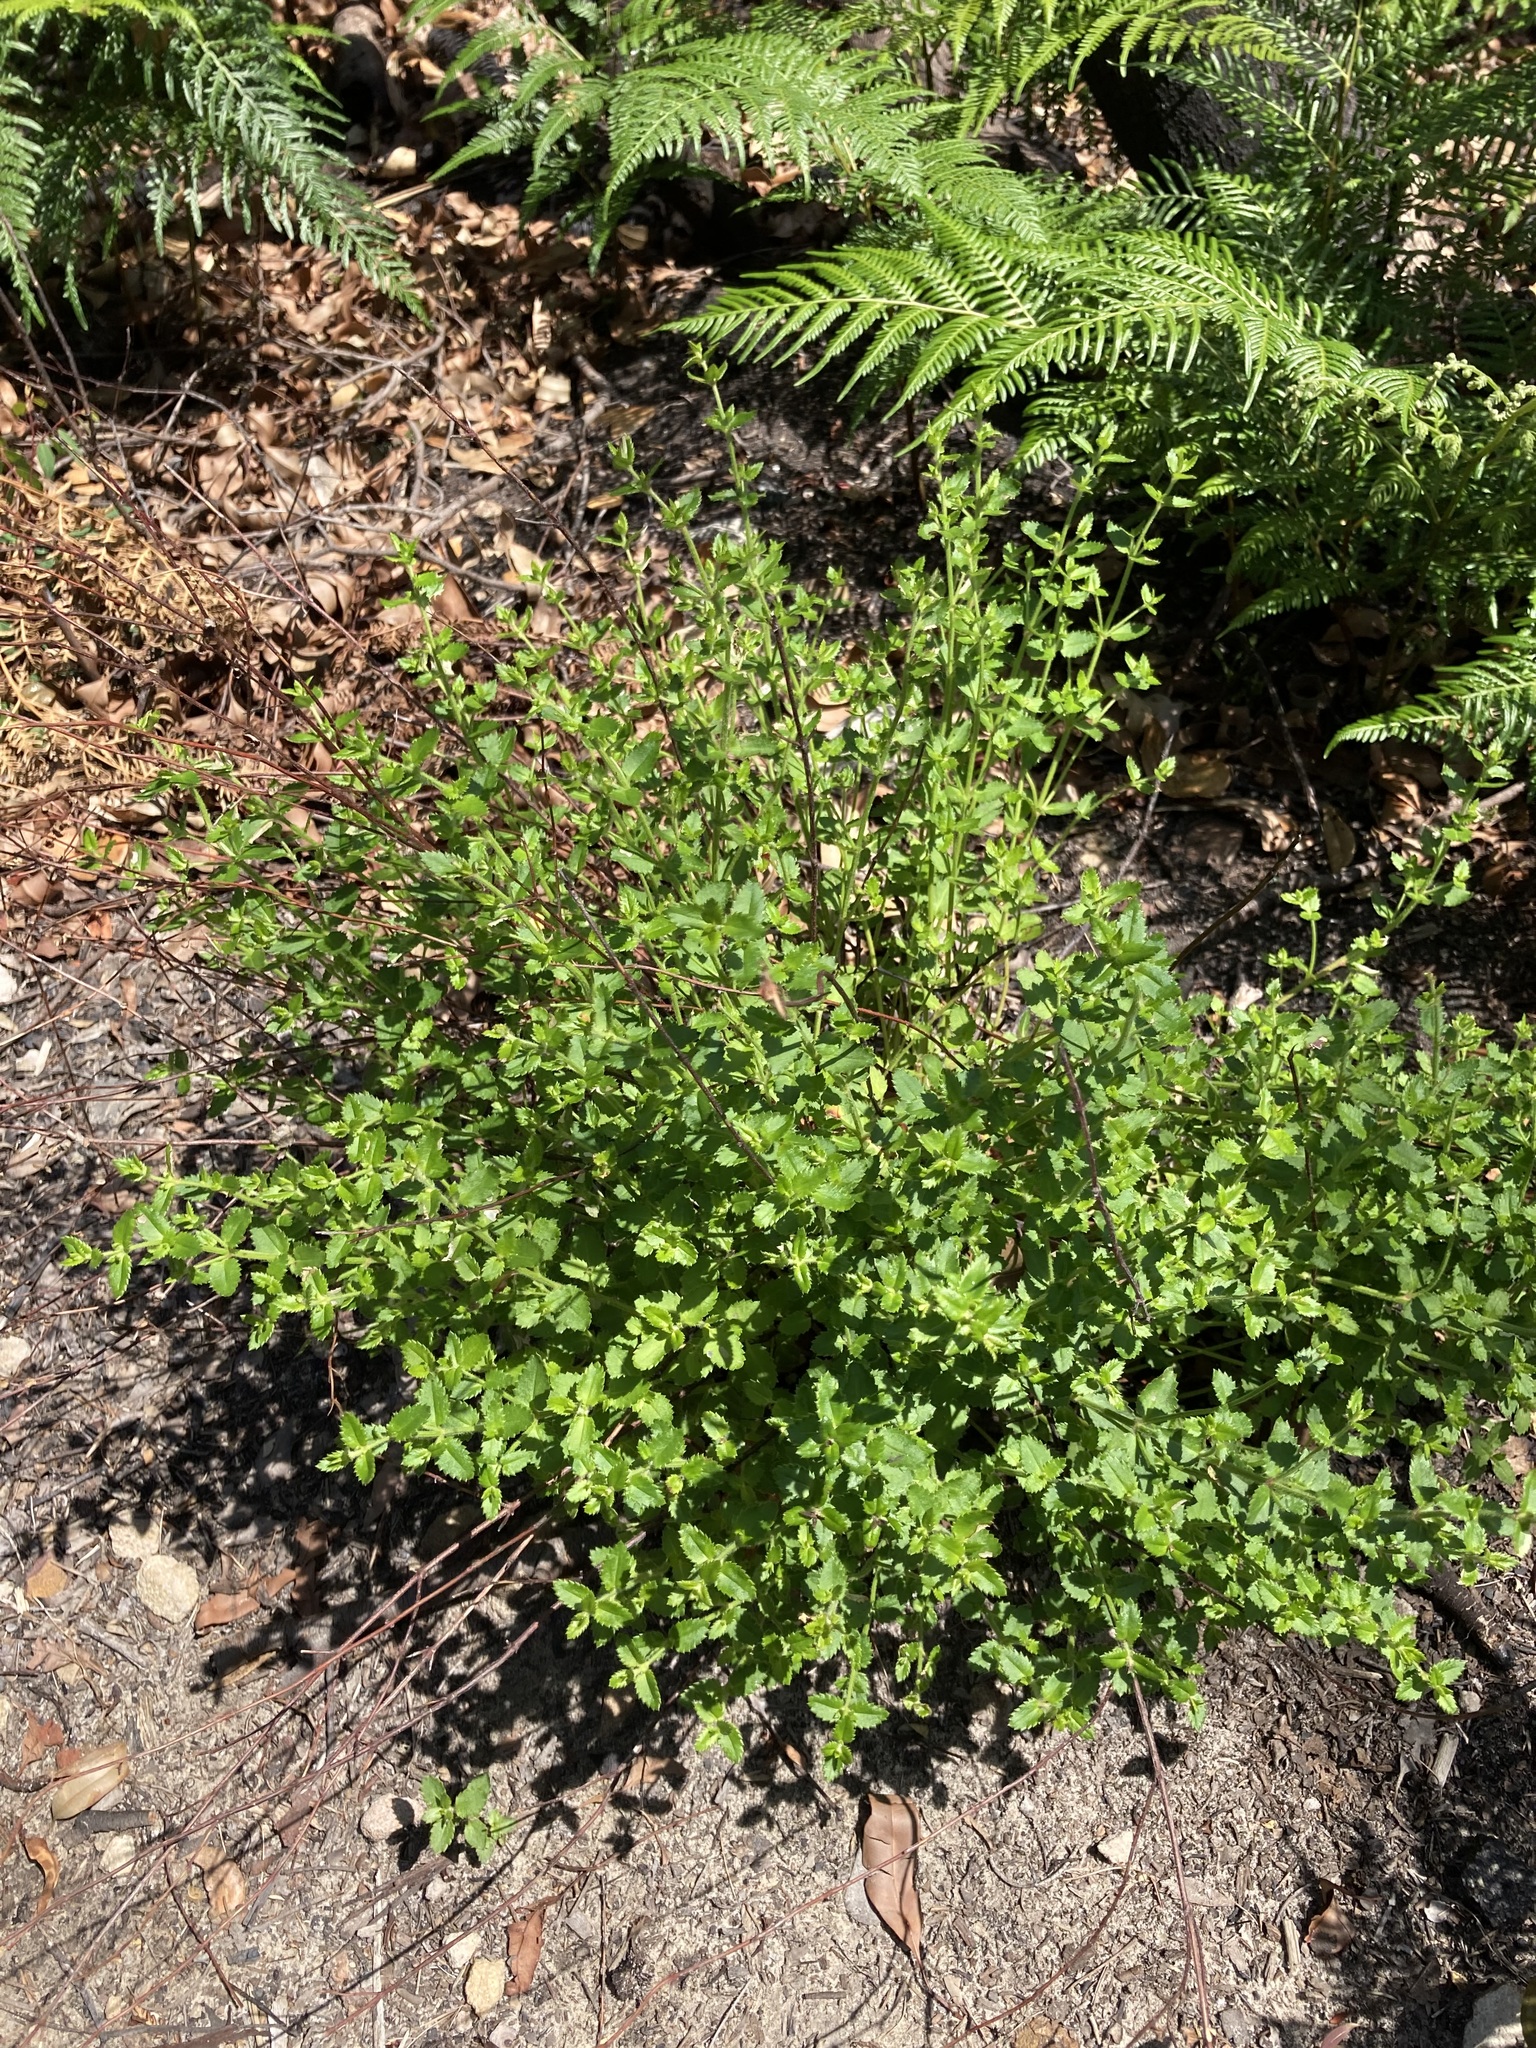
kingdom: Plantae
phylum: Tracheophyta
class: Magnoliopsida
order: Saxifragales
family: Haloragaceae
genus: Gonocarpus
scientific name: Gonocarpus tetragynus
